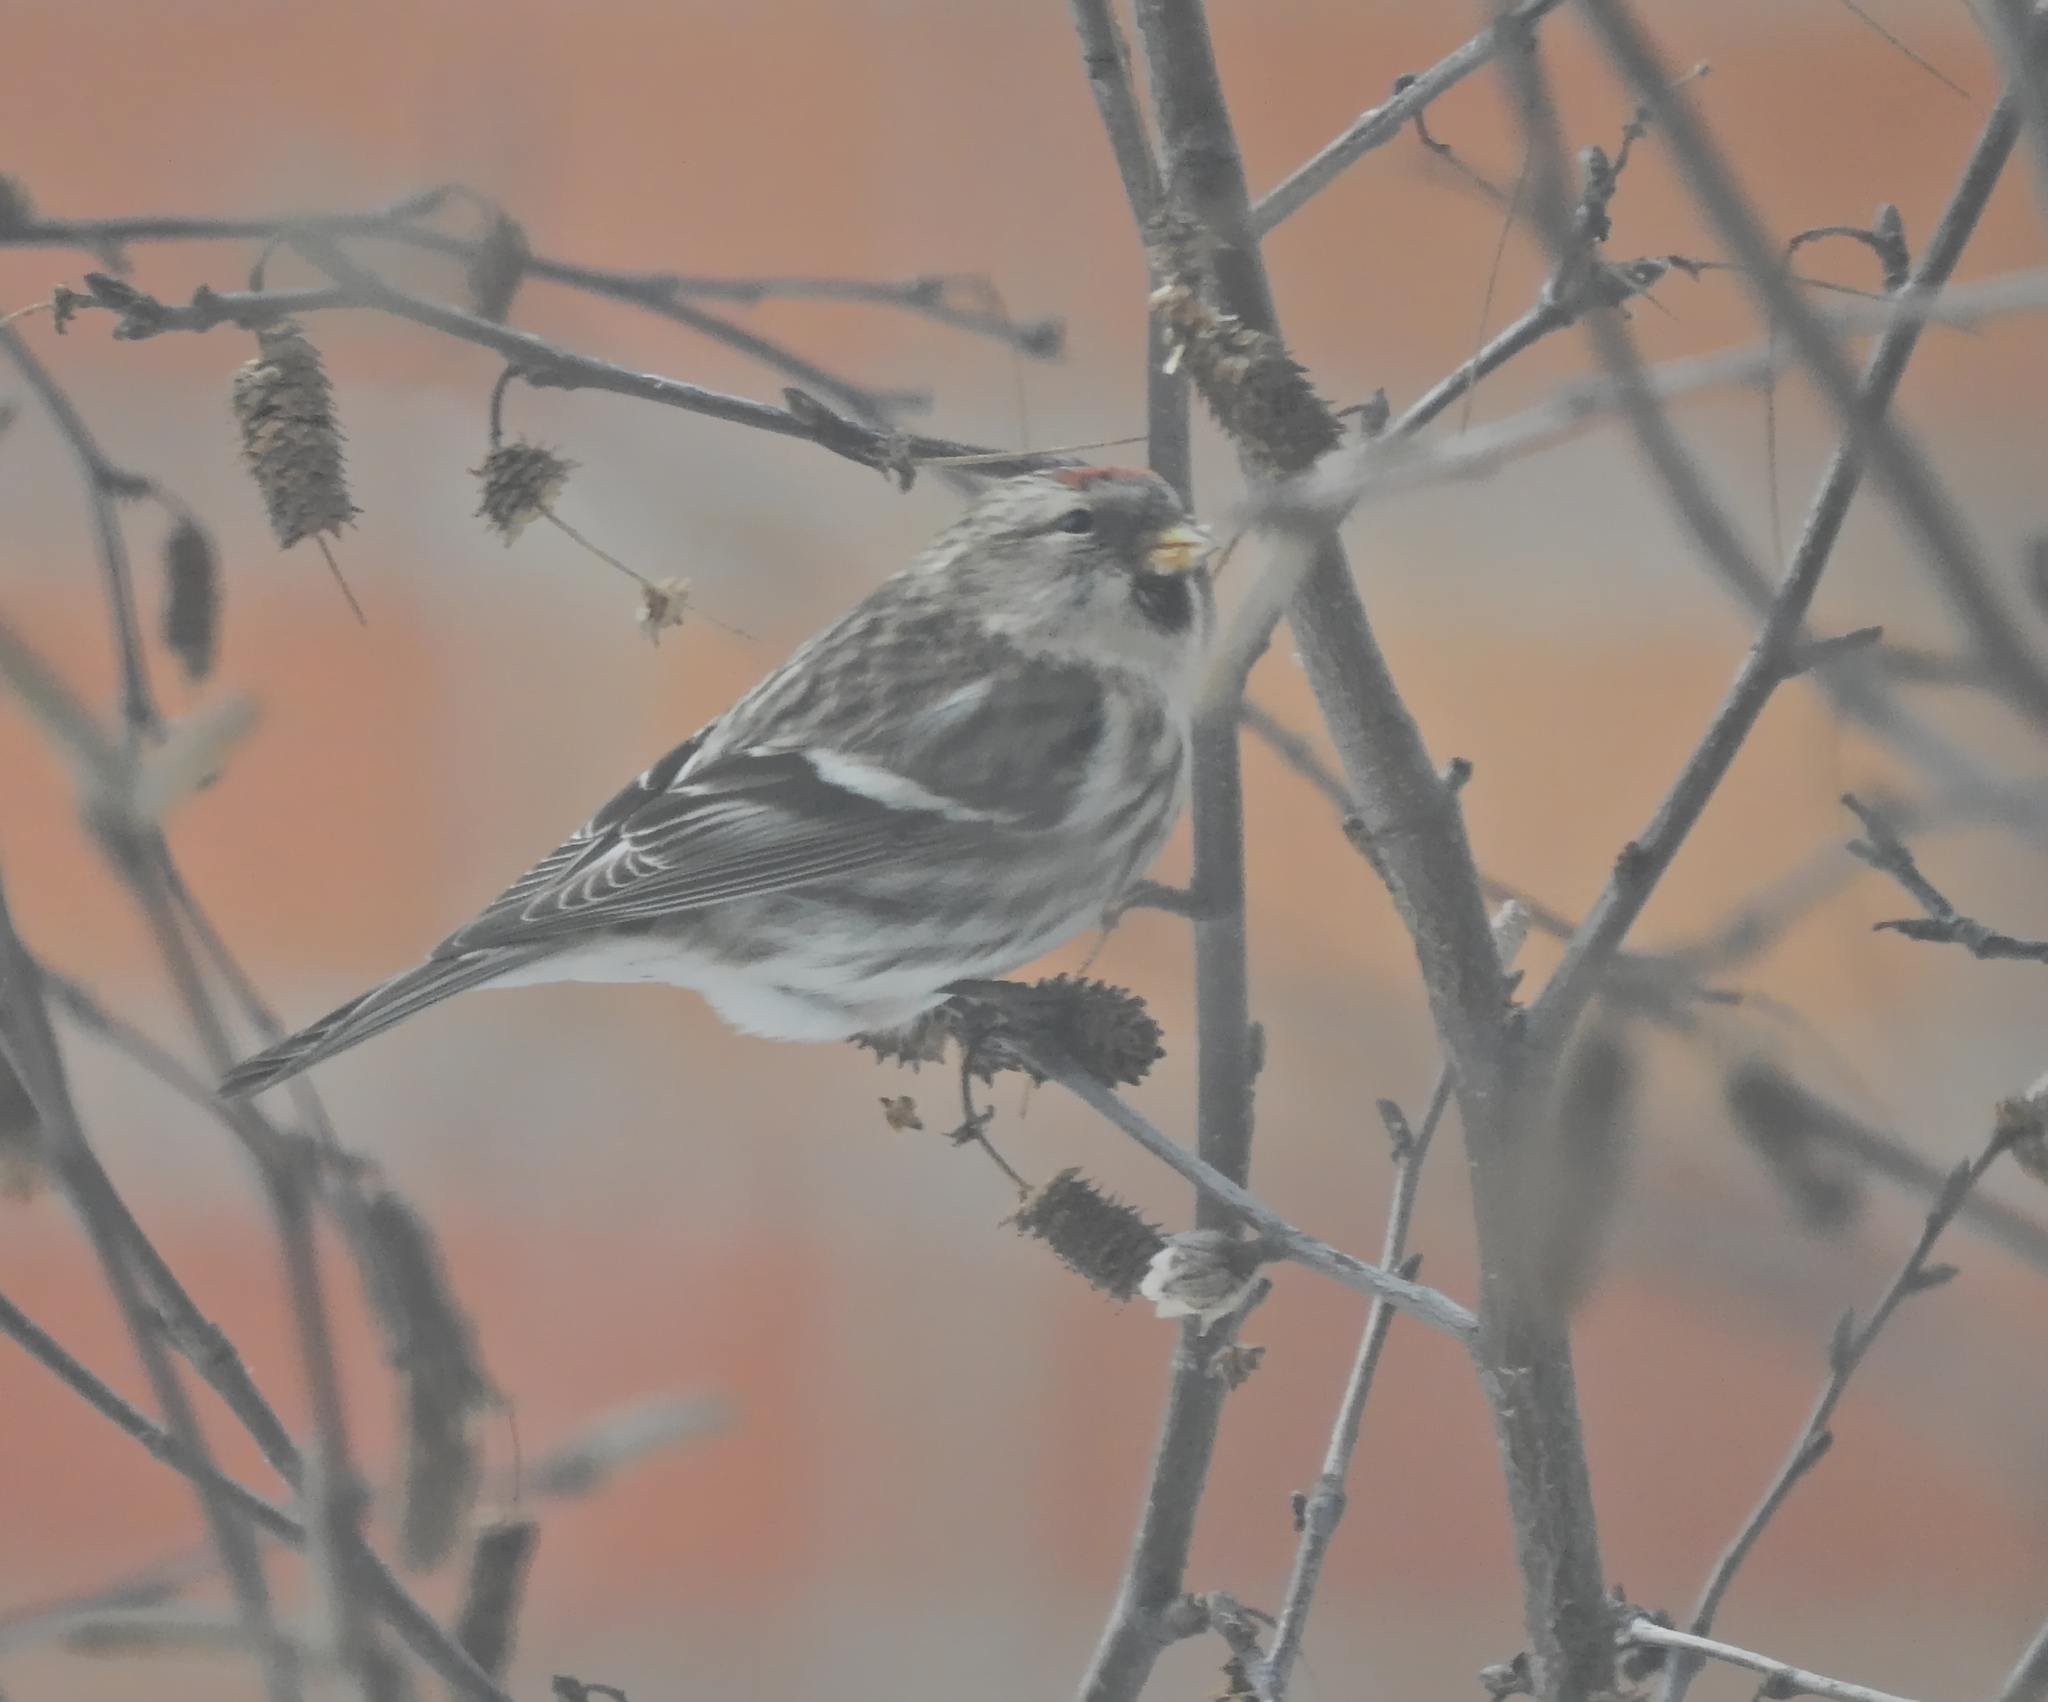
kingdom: Animalia
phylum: Chordata
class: Aves
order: Passeriformes
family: Fringillidae
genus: Acanthis
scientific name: Acanthis flammea
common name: Common redpoll
